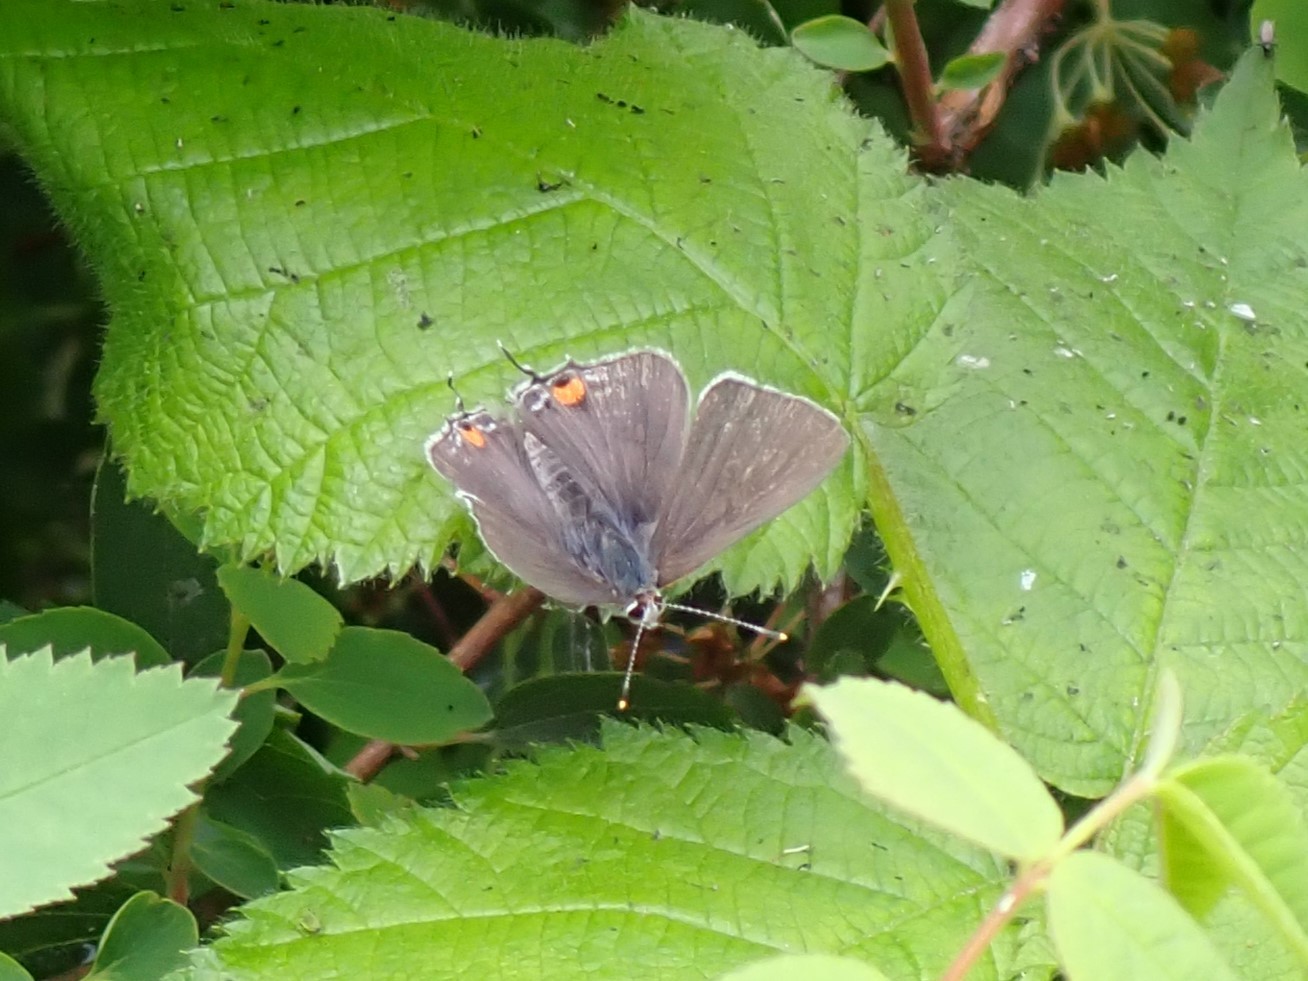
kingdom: Animalia
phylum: Arthropoda
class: Insecta
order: Lepidoptera
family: Lycaenidae
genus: Strymon
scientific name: Strymon melinus
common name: Gray hairstreak
